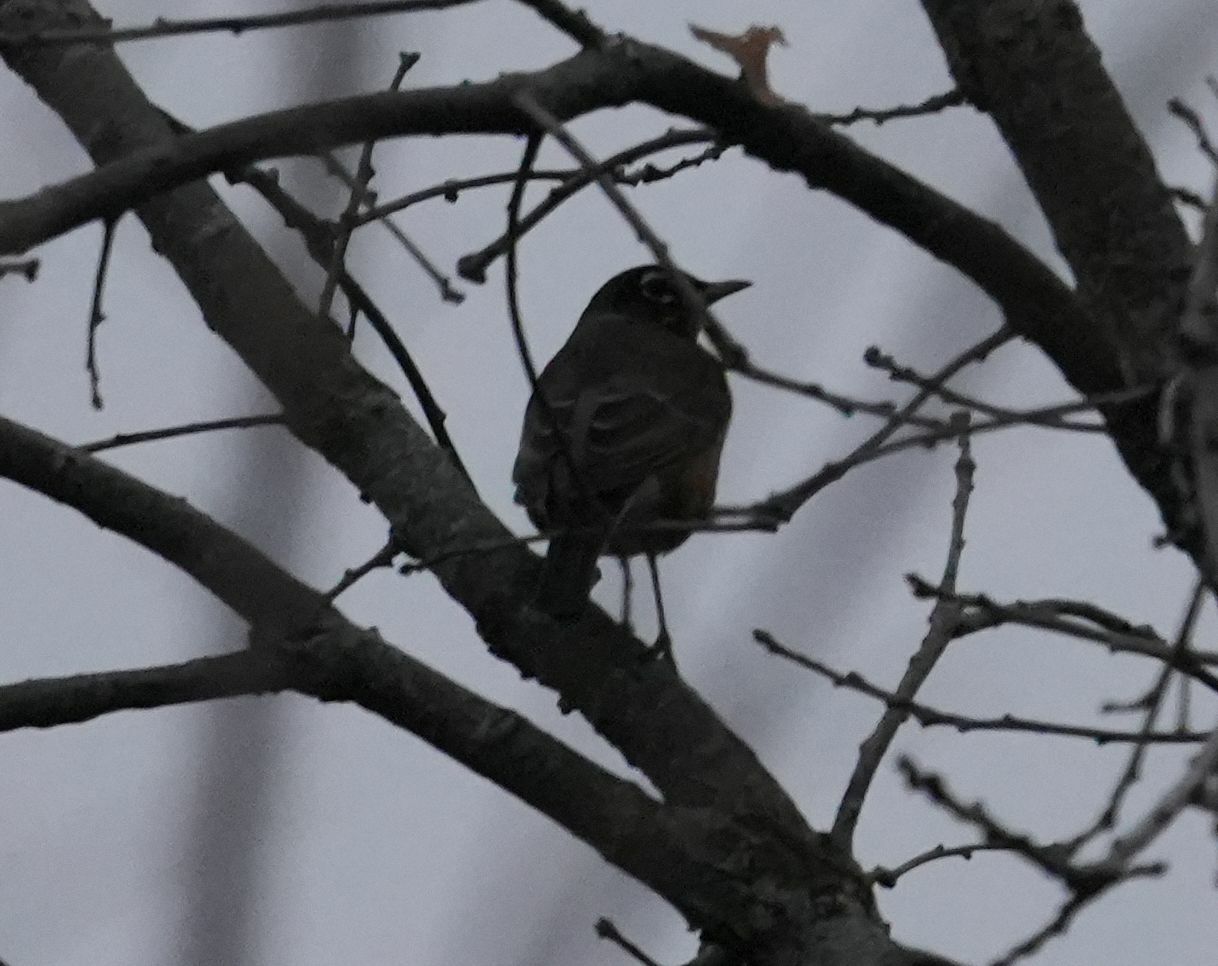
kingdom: Animalia
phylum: Chordata
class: Aves
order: Passeriformes
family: Turdidae
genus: Turdus
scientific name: Turdus migratorius
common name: American robin
